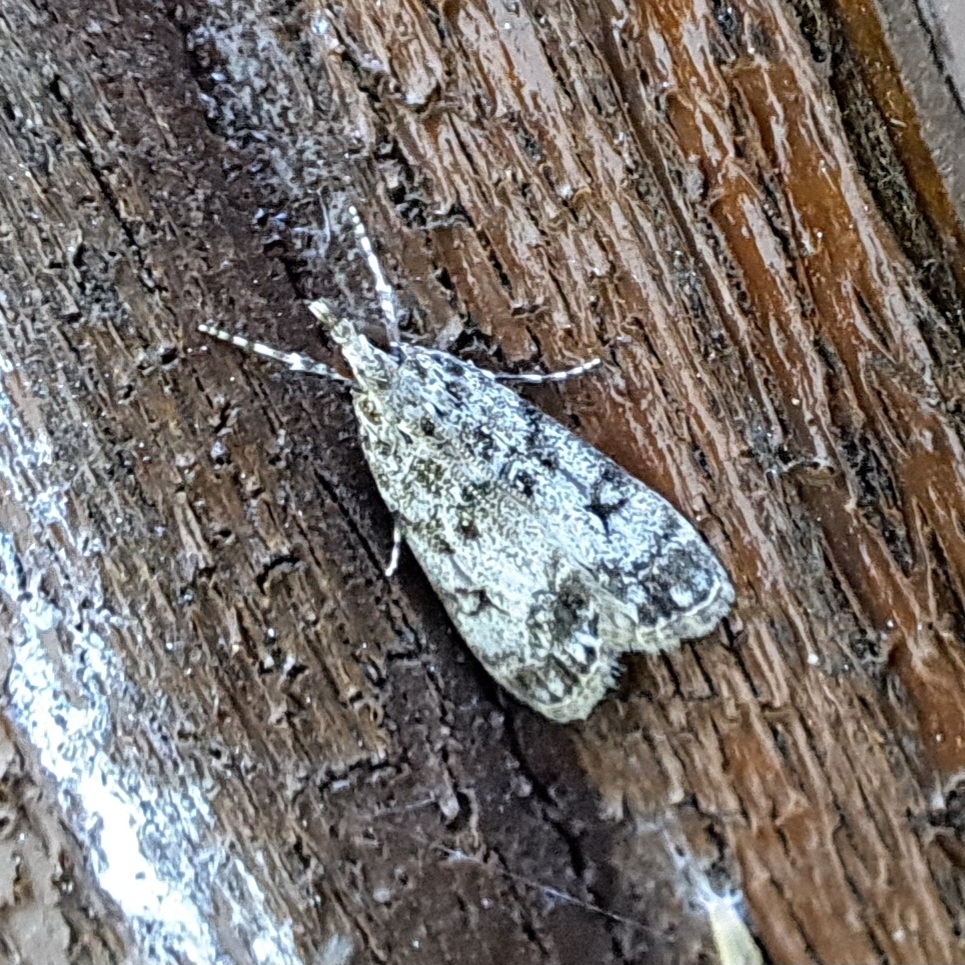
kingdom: Animalia
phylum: Arthropoda
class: Insecta
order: Lepidoptera
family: Crambidae
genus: Eudonia
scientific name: Eudonia lacustrata
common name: Little grey
